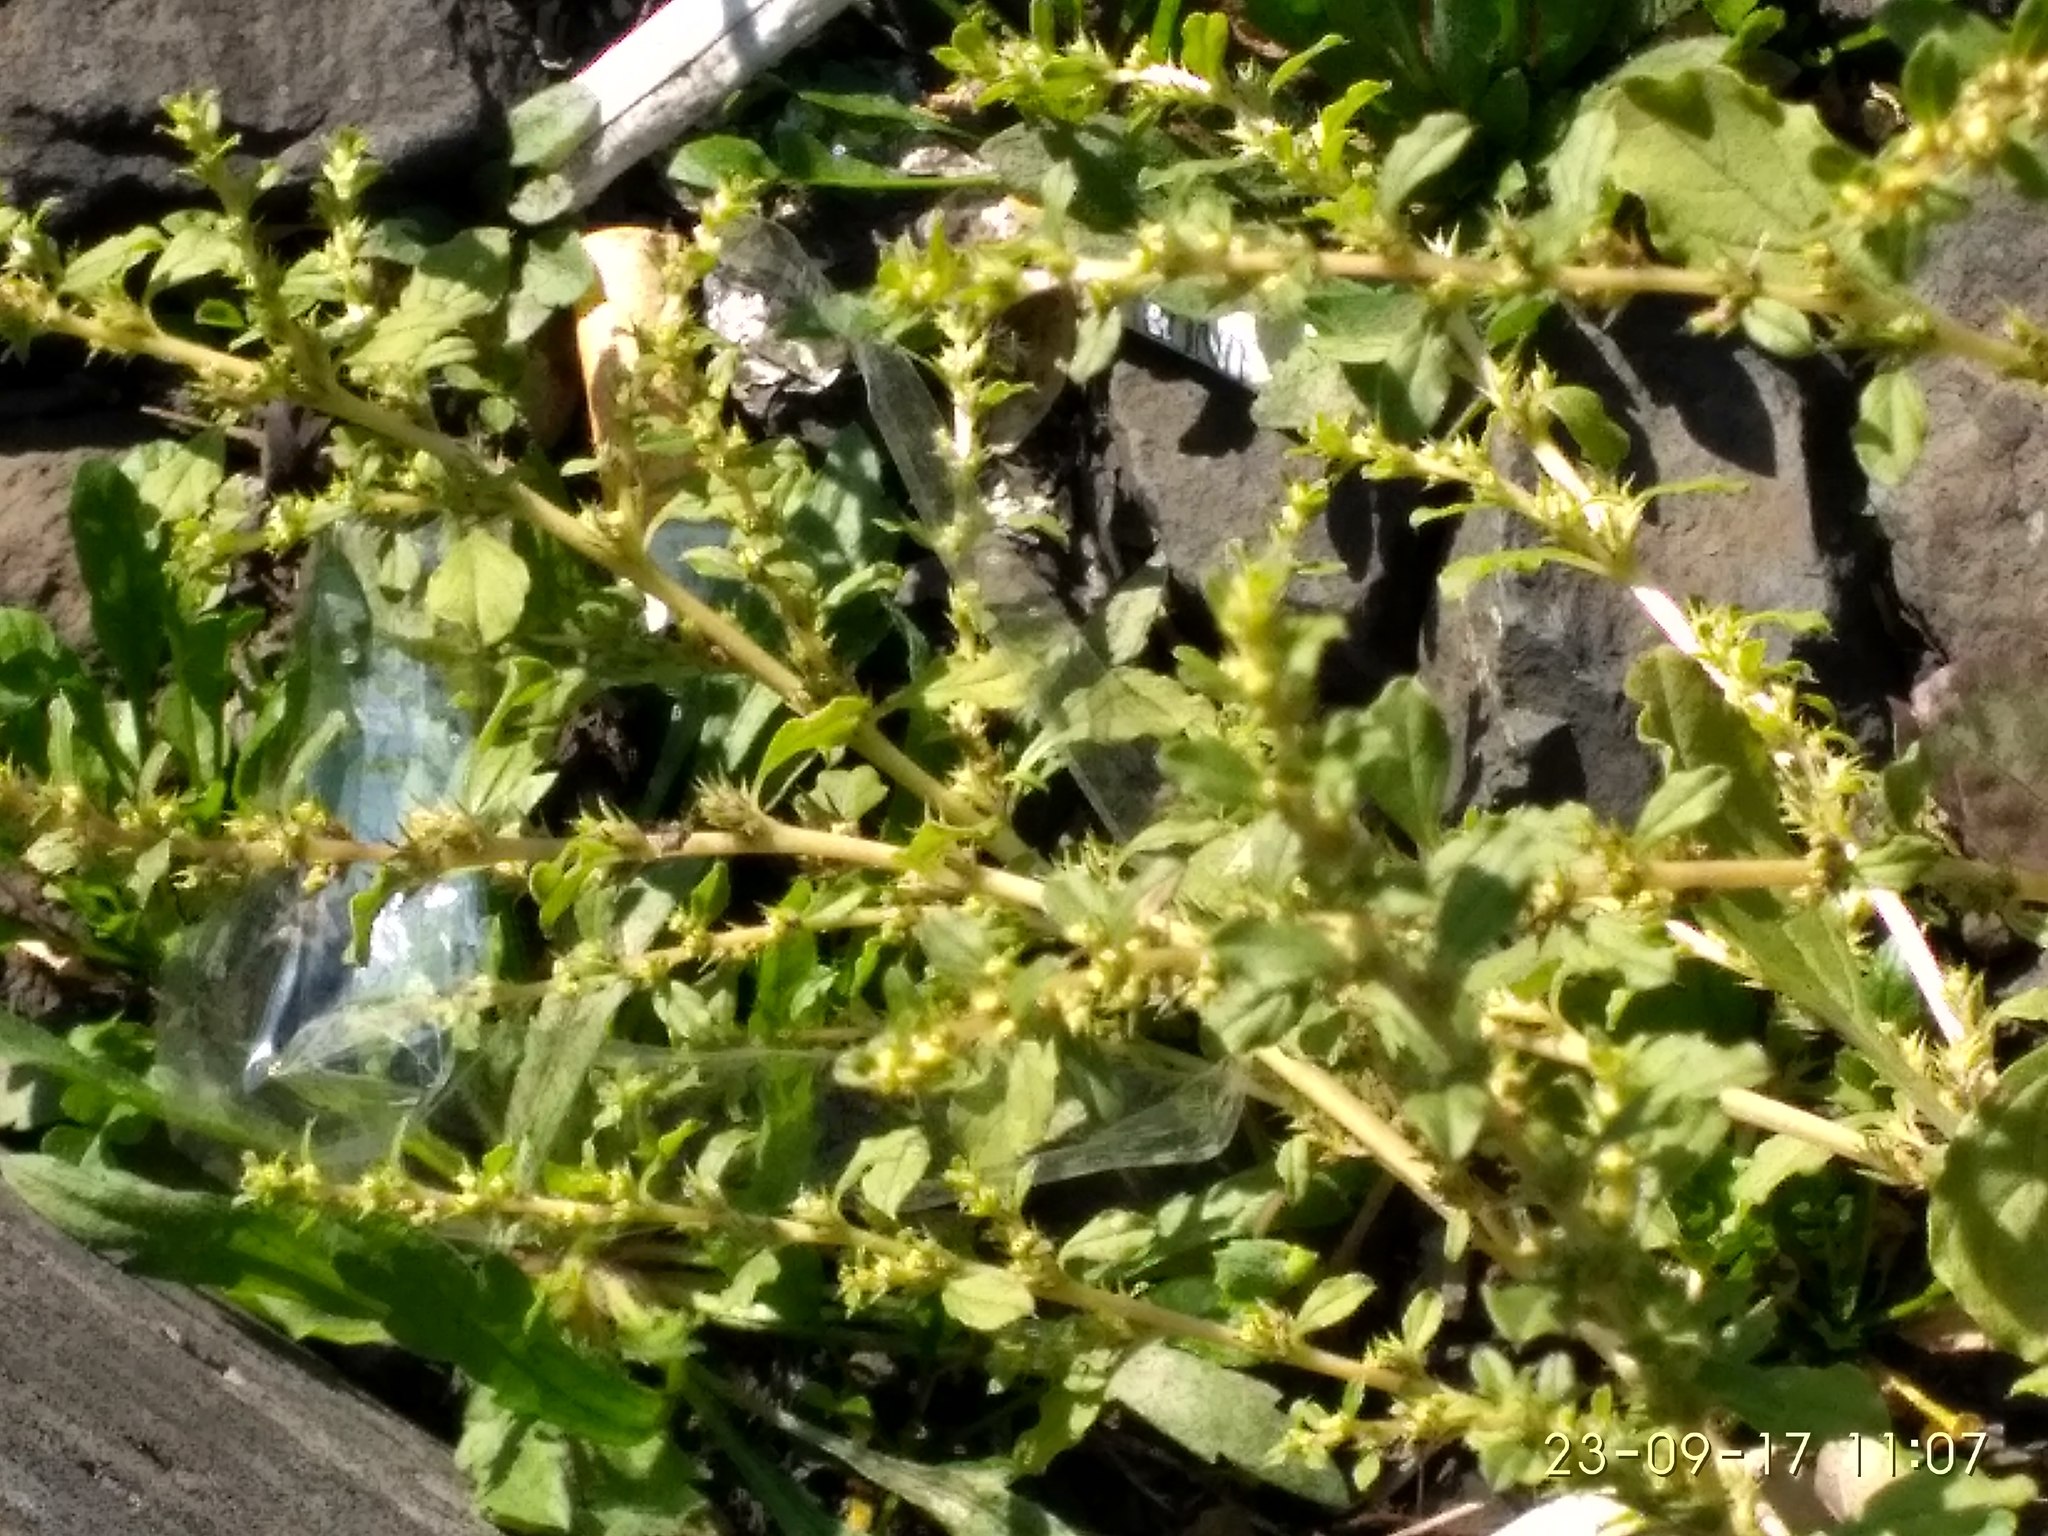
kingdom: Plantae
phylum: Tracheophyta
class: Magnoliopsida
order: Caryophyllales
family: Amaranthaceae
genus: Amaranthus
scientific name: Amaranthus albus
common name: White pigweed
